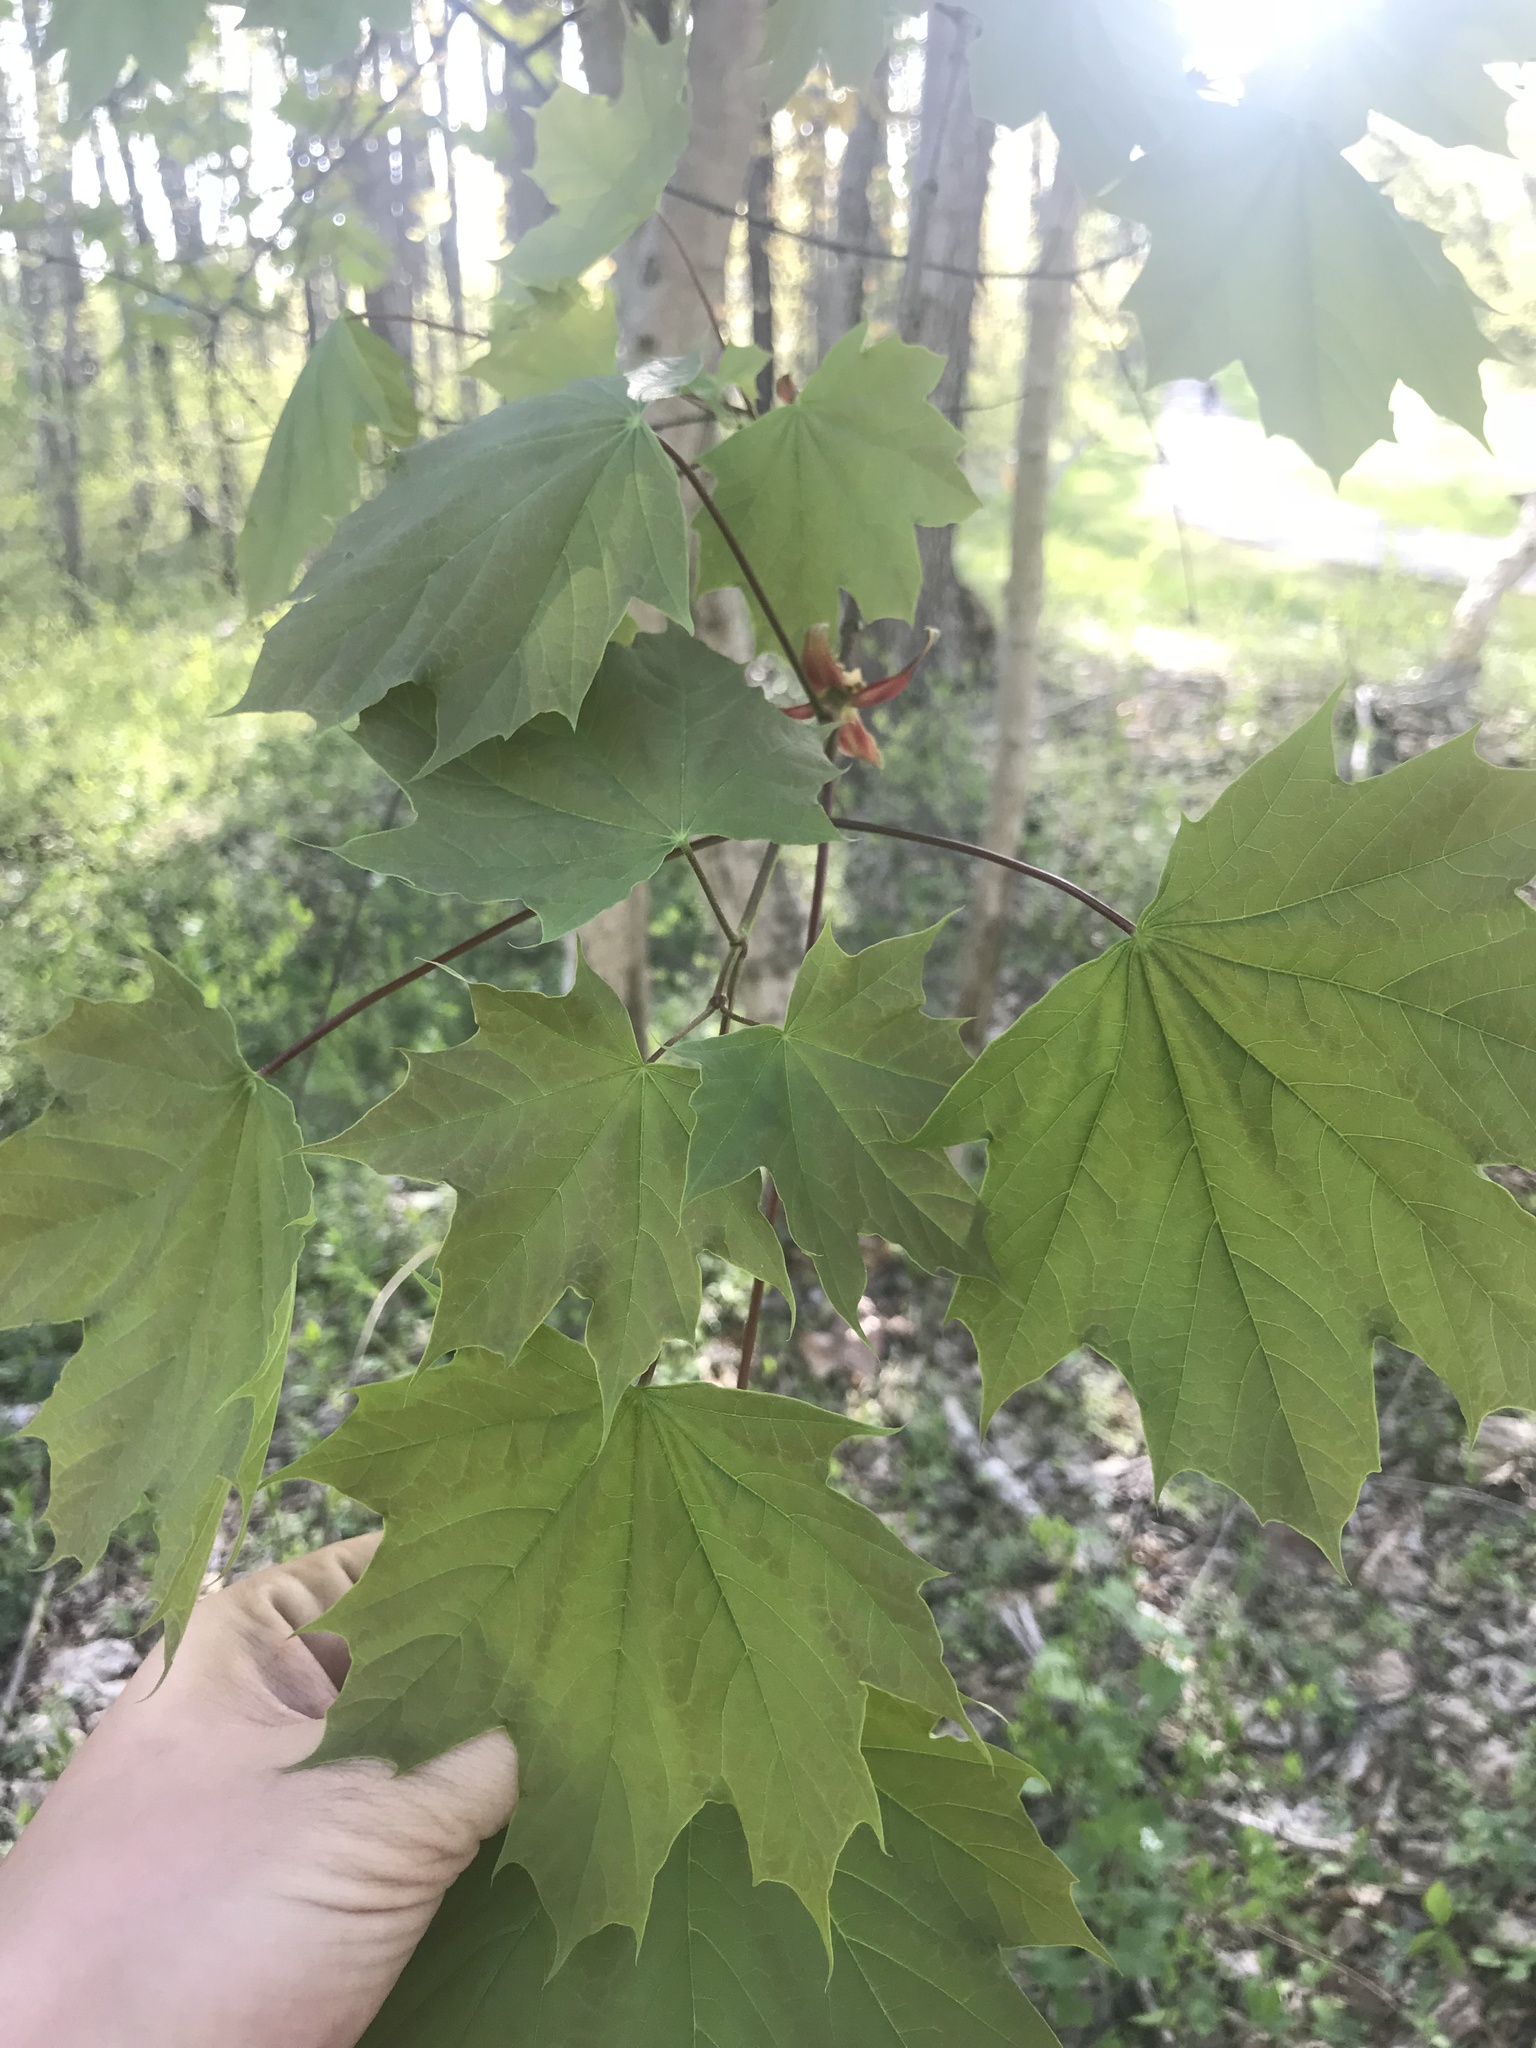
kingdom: Plantae
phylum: Tracheophyta
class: Magnoliopsida
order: Sapindales
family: Sapindaceae
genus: Acer
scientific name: Acer platanoides
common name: Norway maple
